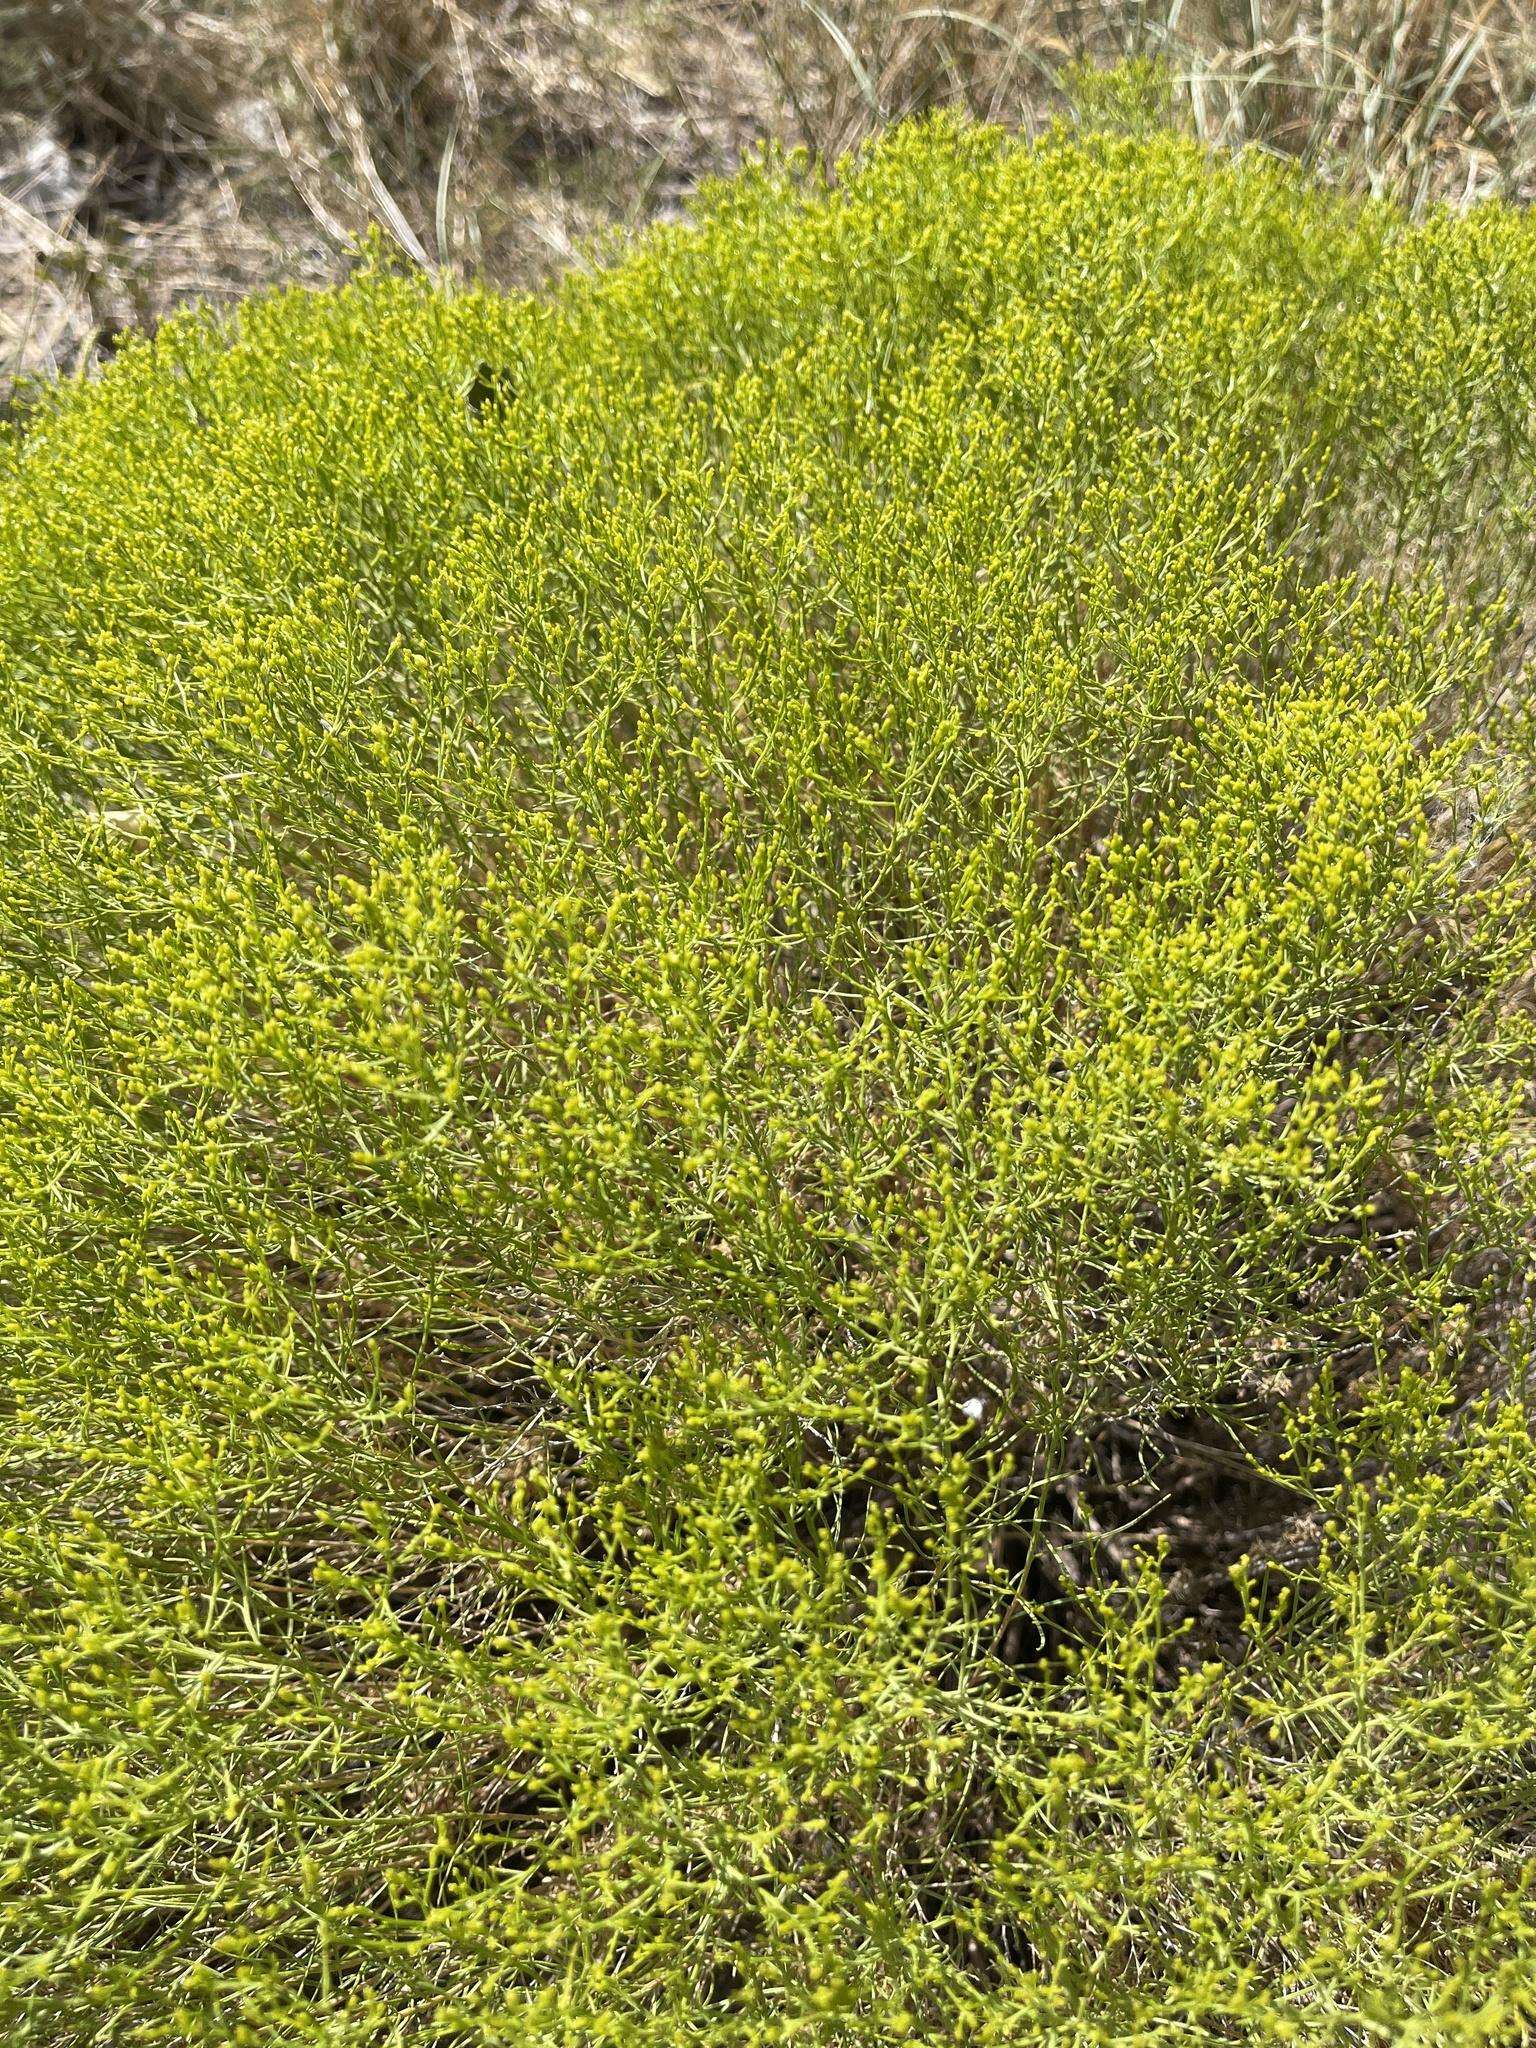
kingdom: Plantae
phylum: Tracheophyta
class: Magnoliopsida
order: Asterales
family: Asteraceae
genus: Gutierrezia
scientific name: Gutierrezia sarothrae
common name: Broom snakeweed
